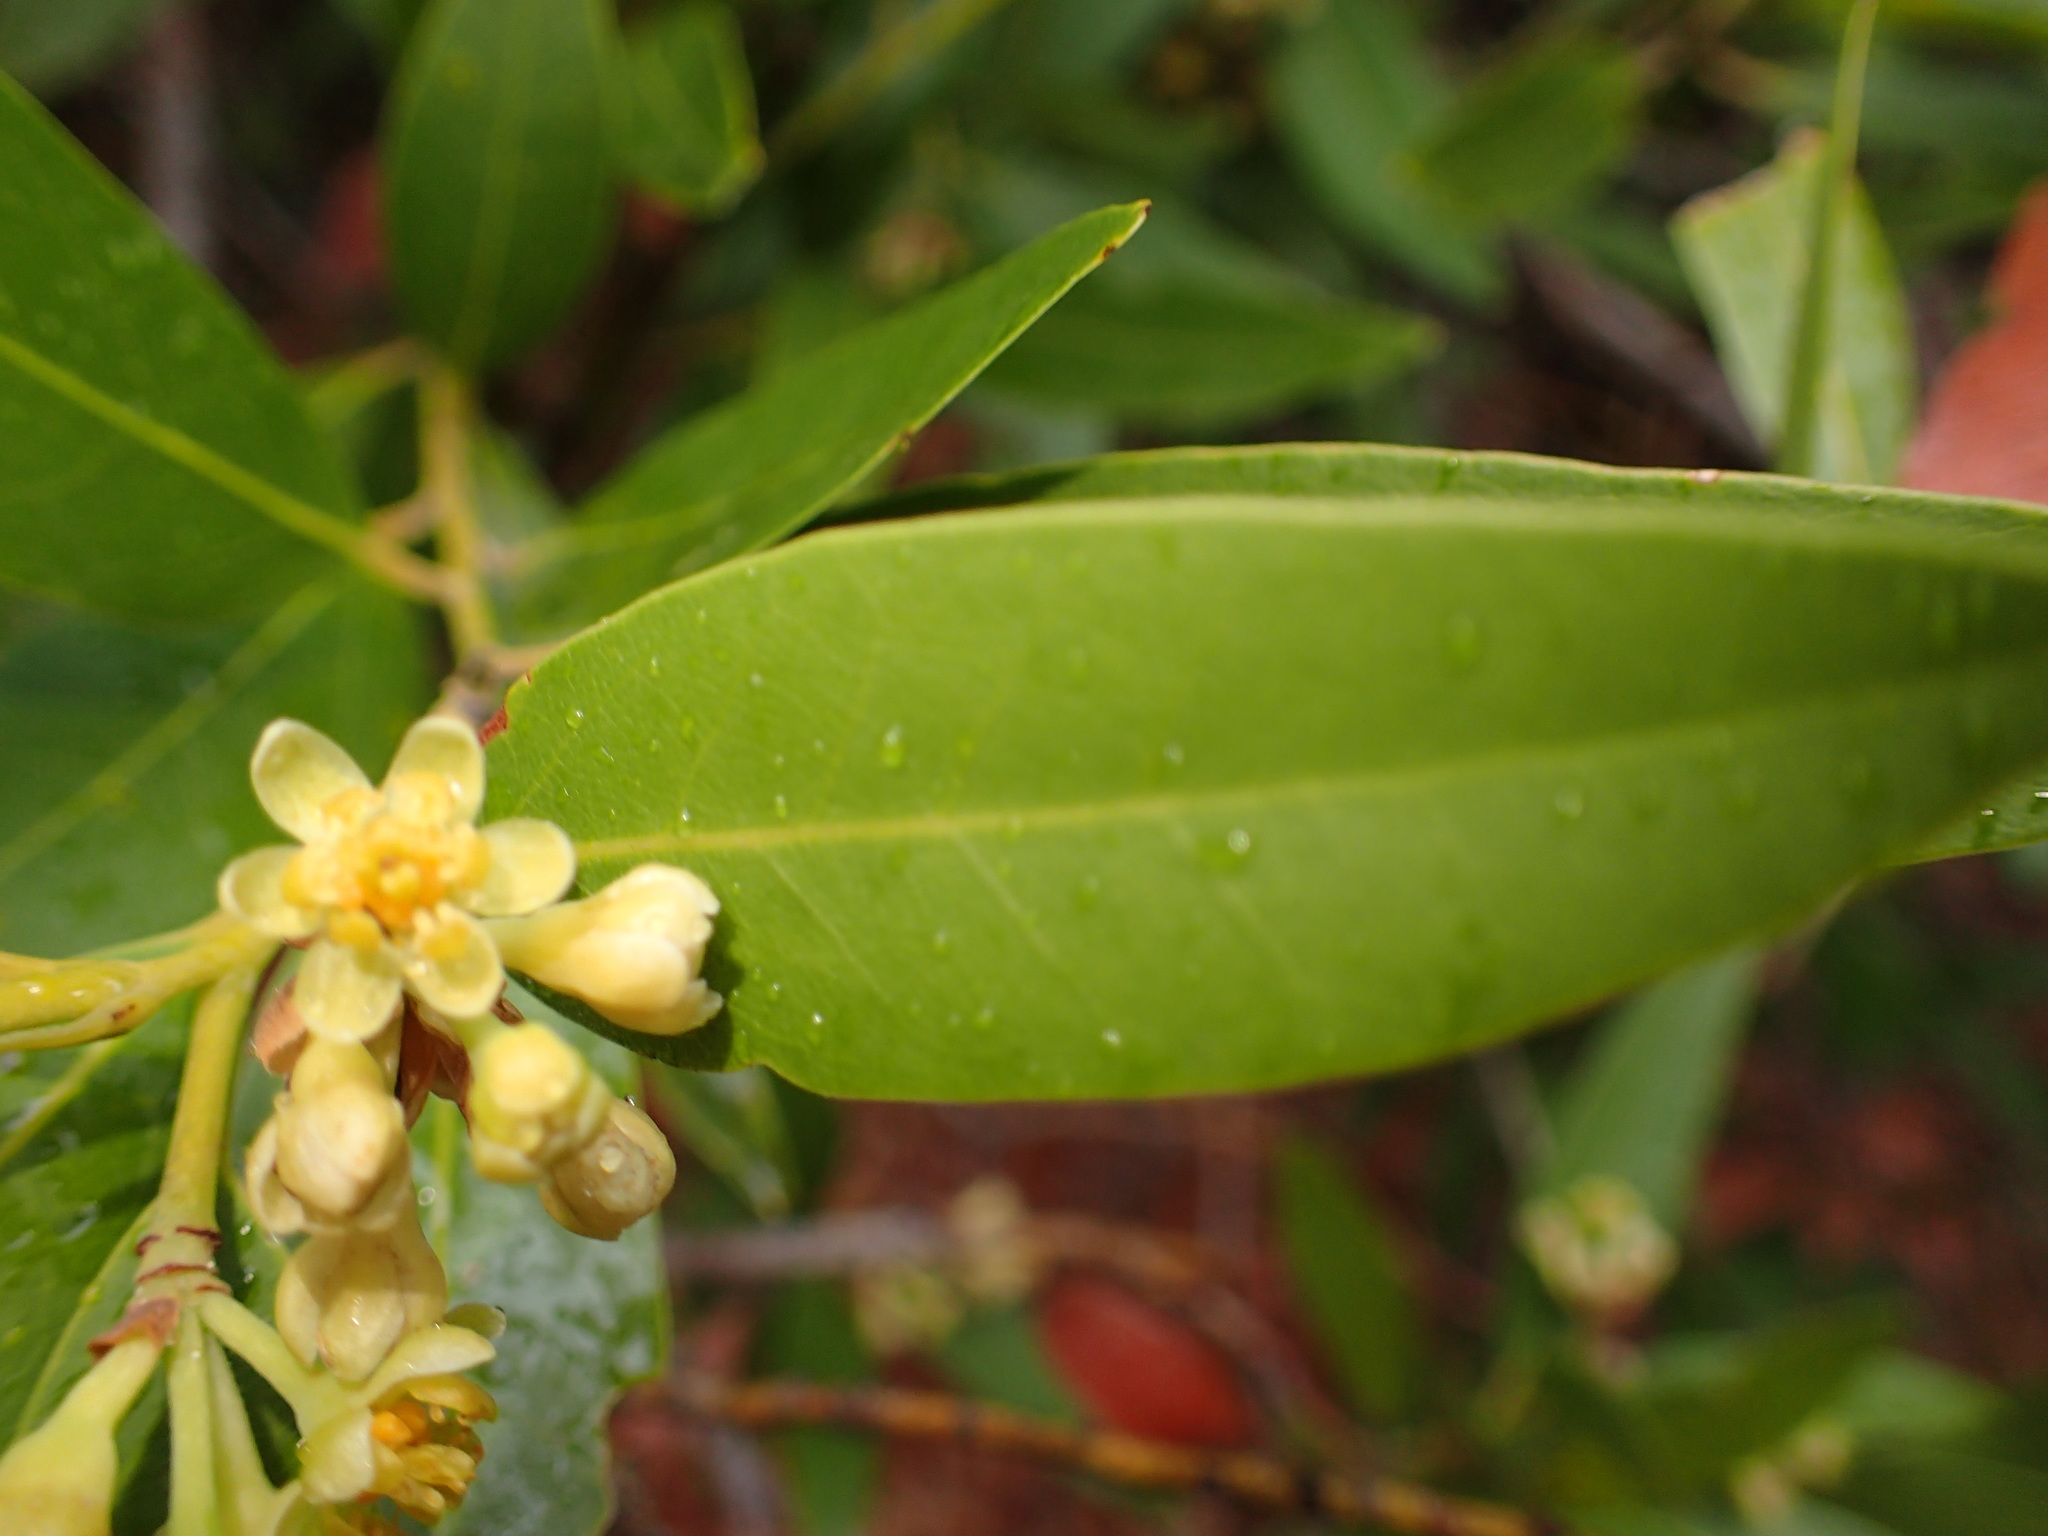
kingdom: Plantae
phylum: Tracheophyta
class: Magnoliopsida
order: Laurales
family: Lauraceae
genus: Umbellularia
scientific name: Umbellularia californica
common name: California bay
